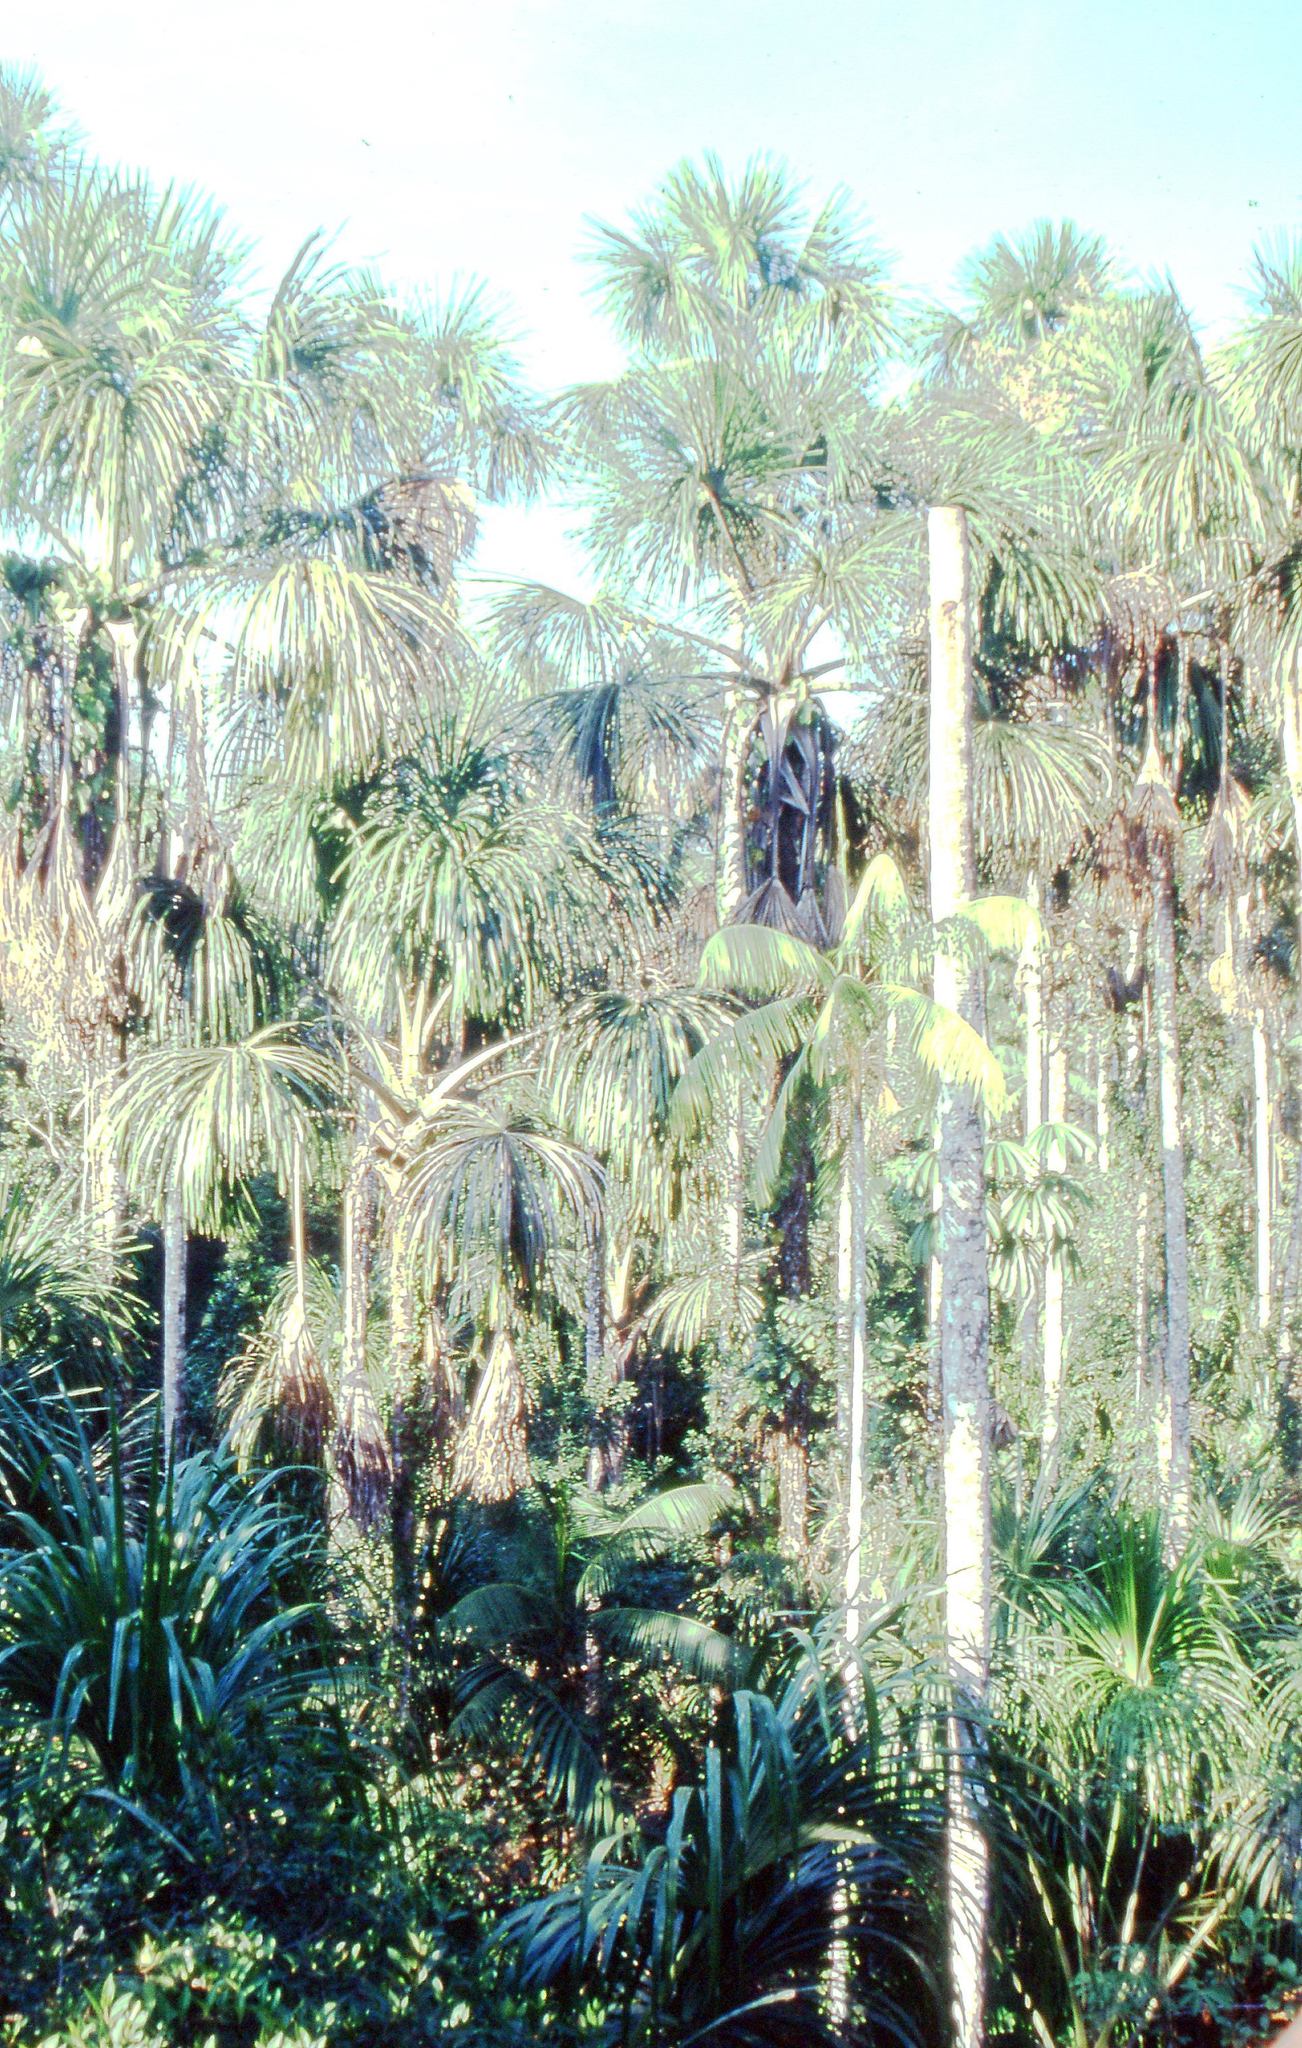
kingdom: Plantae
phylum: Tracheophyta
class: Liliopsida
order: Arecales
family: Arecaceae
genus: Mauritia
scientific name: Mauritia flexuosa
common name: Tree-of-life
